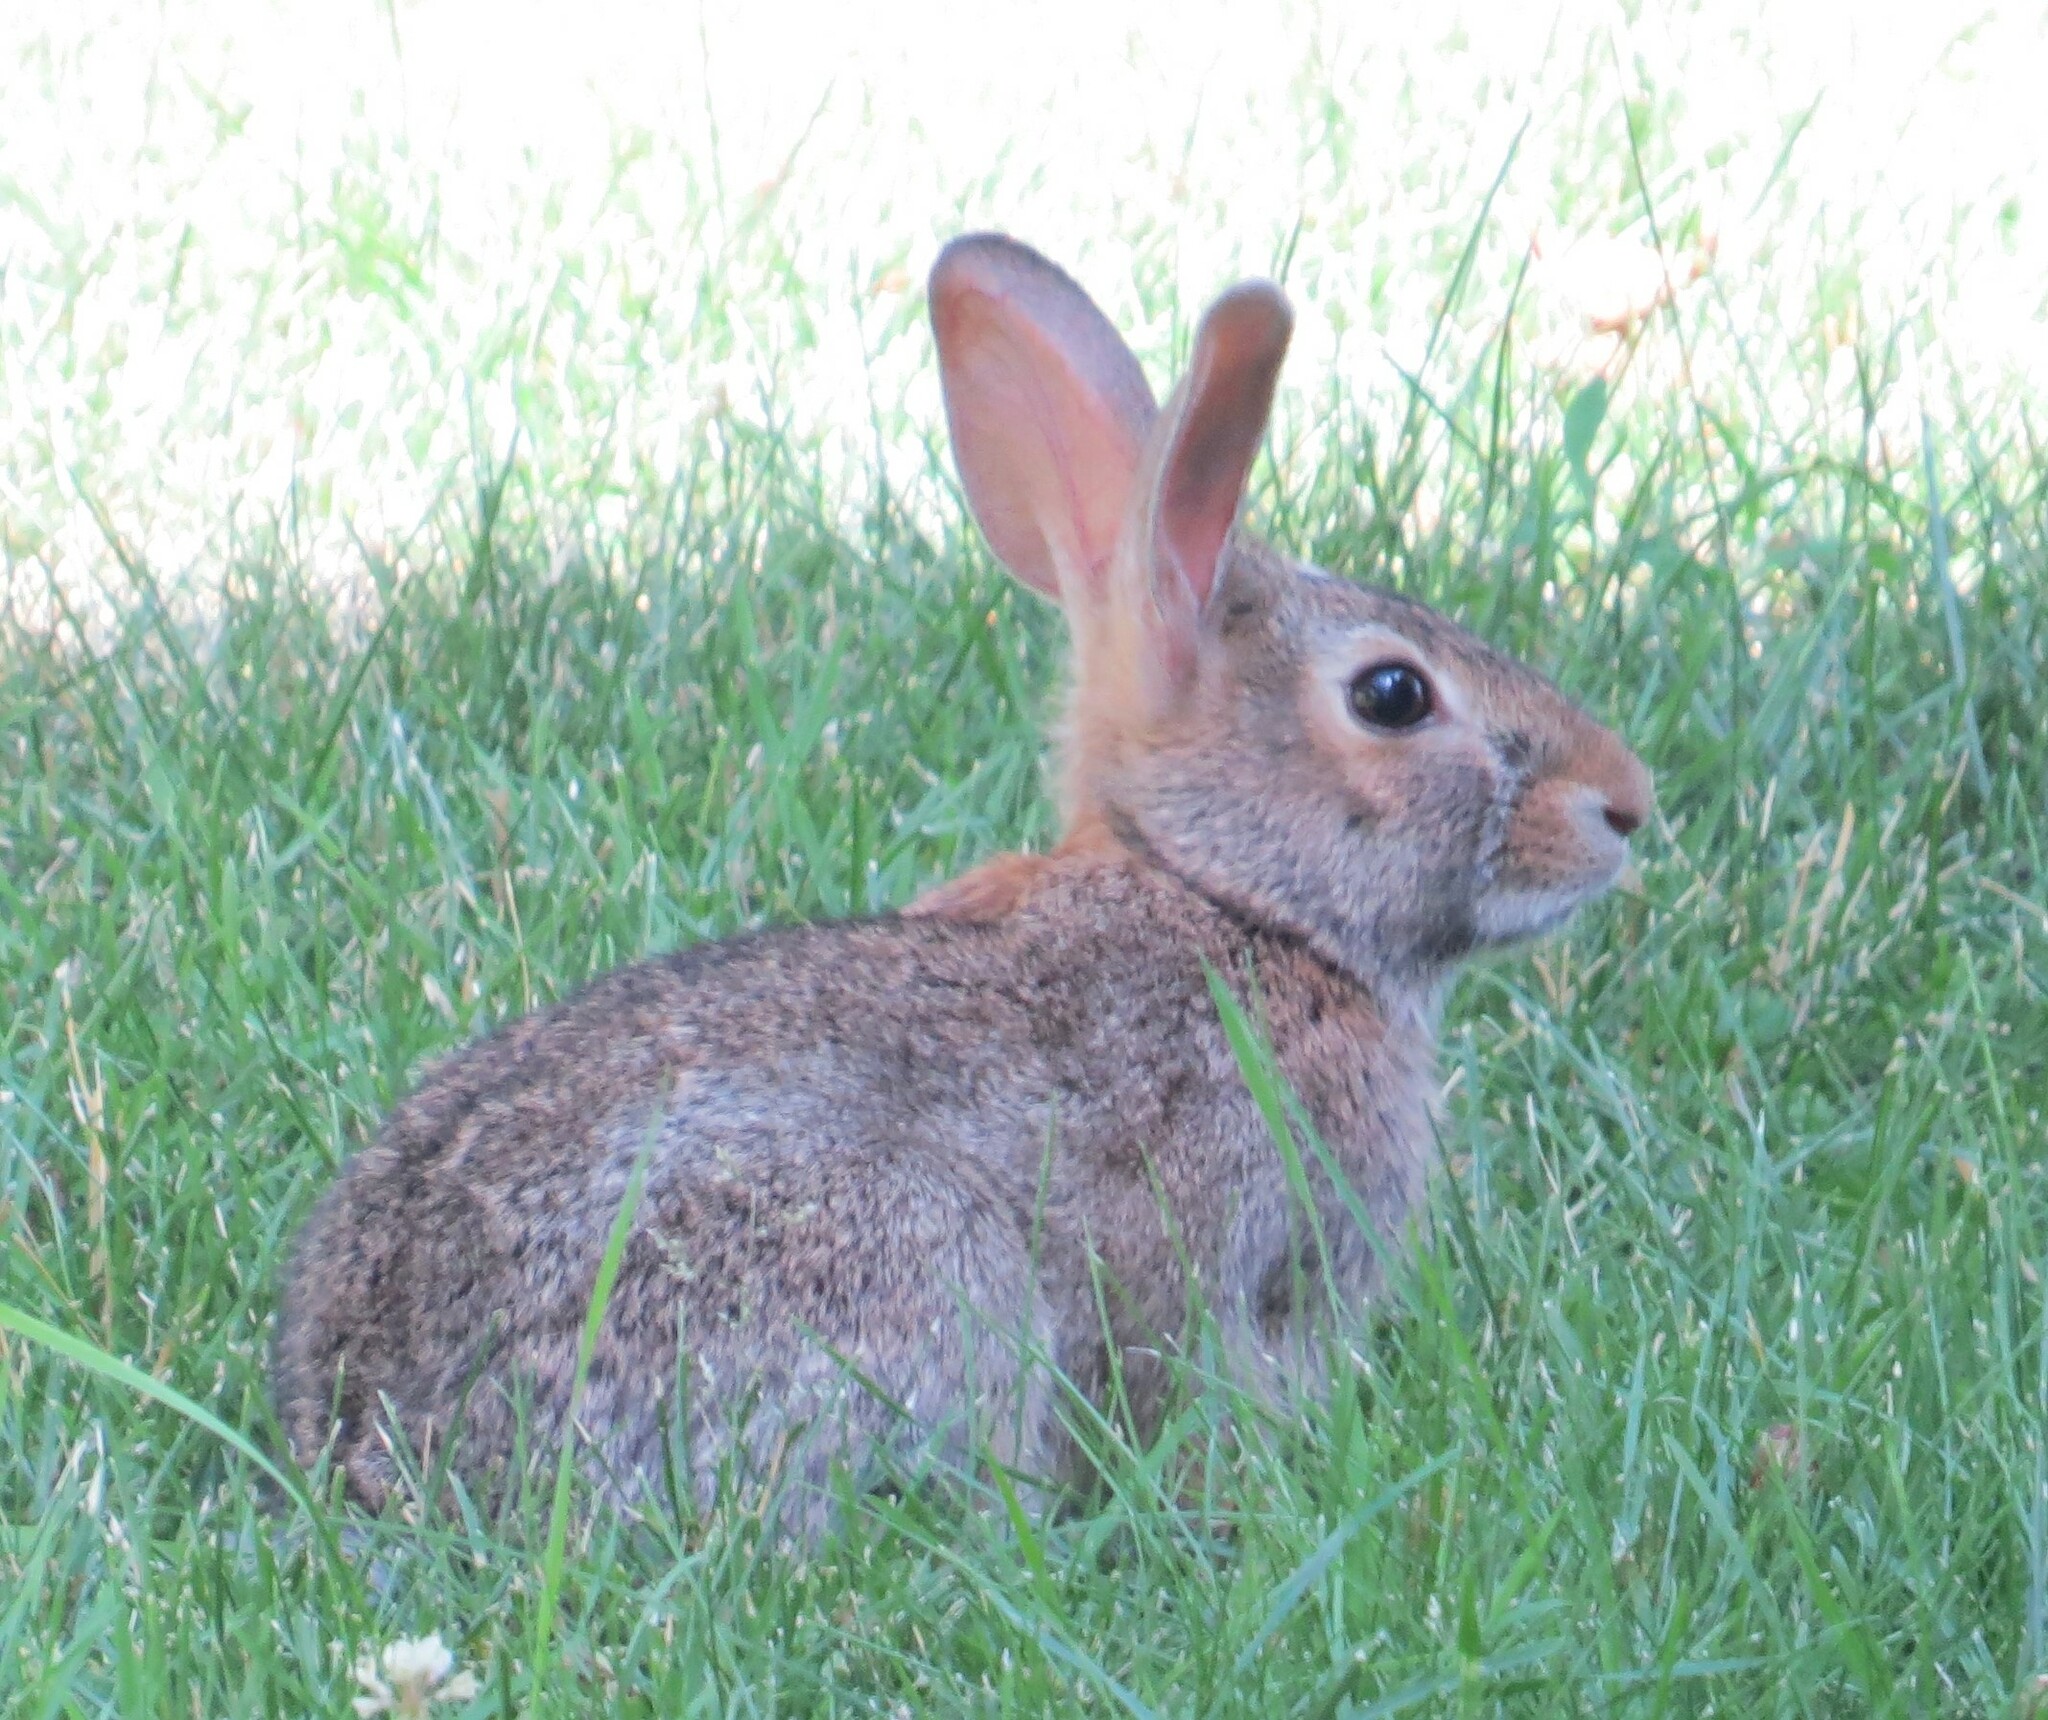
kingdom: Animalia
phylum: Chordata
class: Mammalia
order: Lagomorpha
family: Leporidae
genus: Sylvilagus
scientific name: Sylvilagus floridanus
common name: Eastern cottontail
